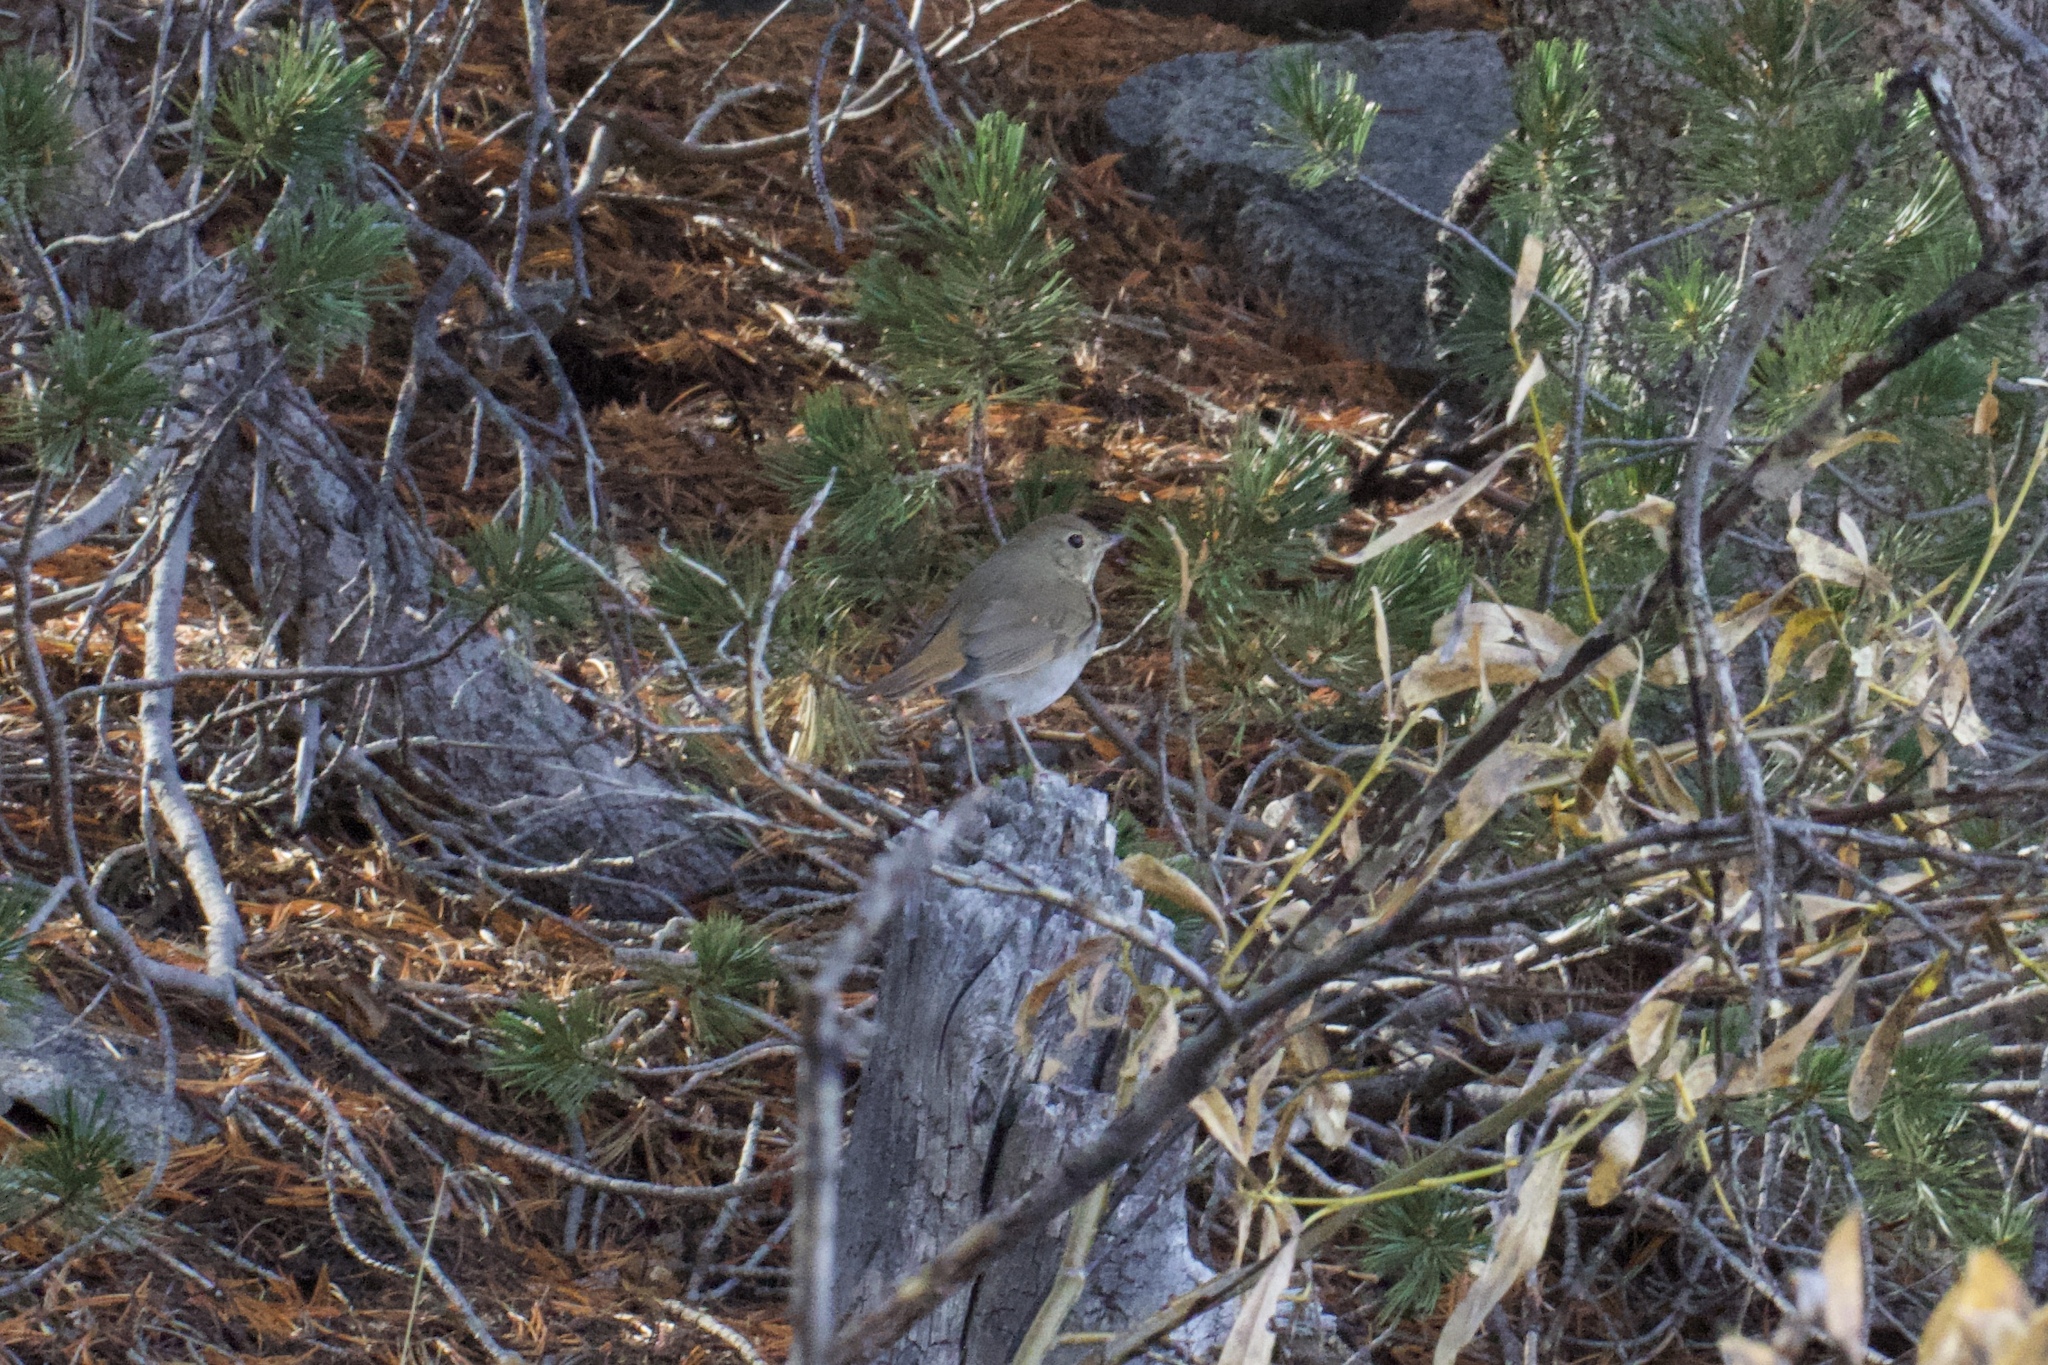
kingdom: Animalia
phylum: Chordata
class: Aves
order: Passeriformes
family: Turdidae
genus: Catharus
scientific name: Catharus guttatus
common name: Hermit thrush
